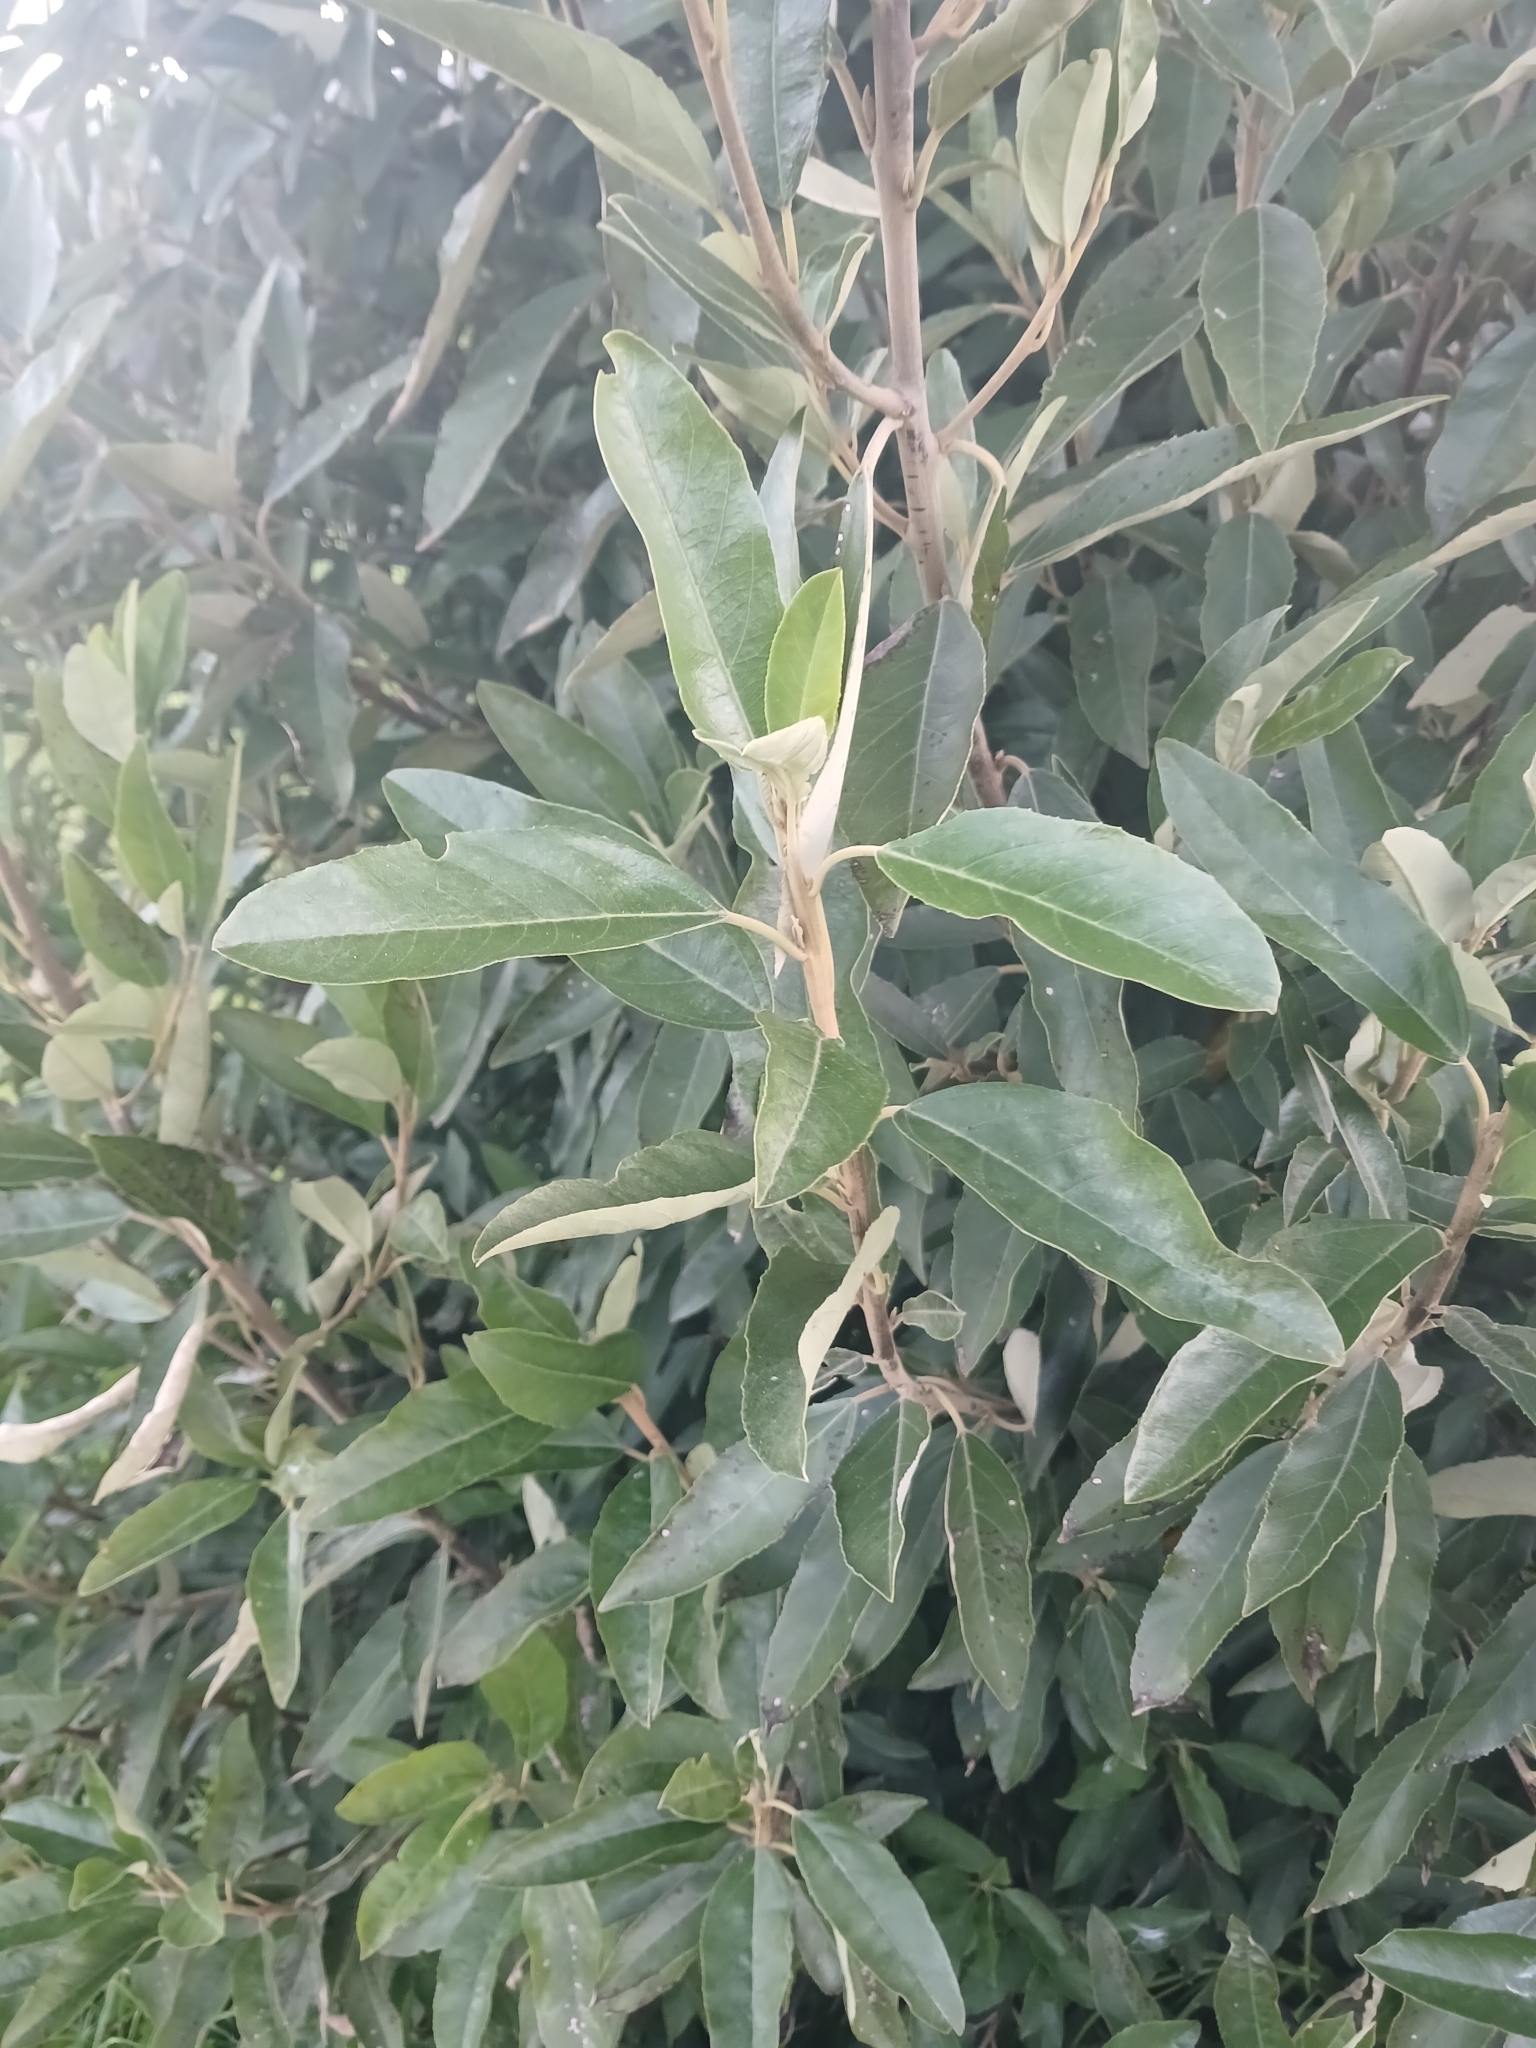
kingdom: Plantae
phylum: Tracheophyta
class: Magnoliopsida
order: Malpighiales
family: Achariaceae
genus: Kiggelaria
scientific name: Kiggelaria africana
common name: Wild peach
